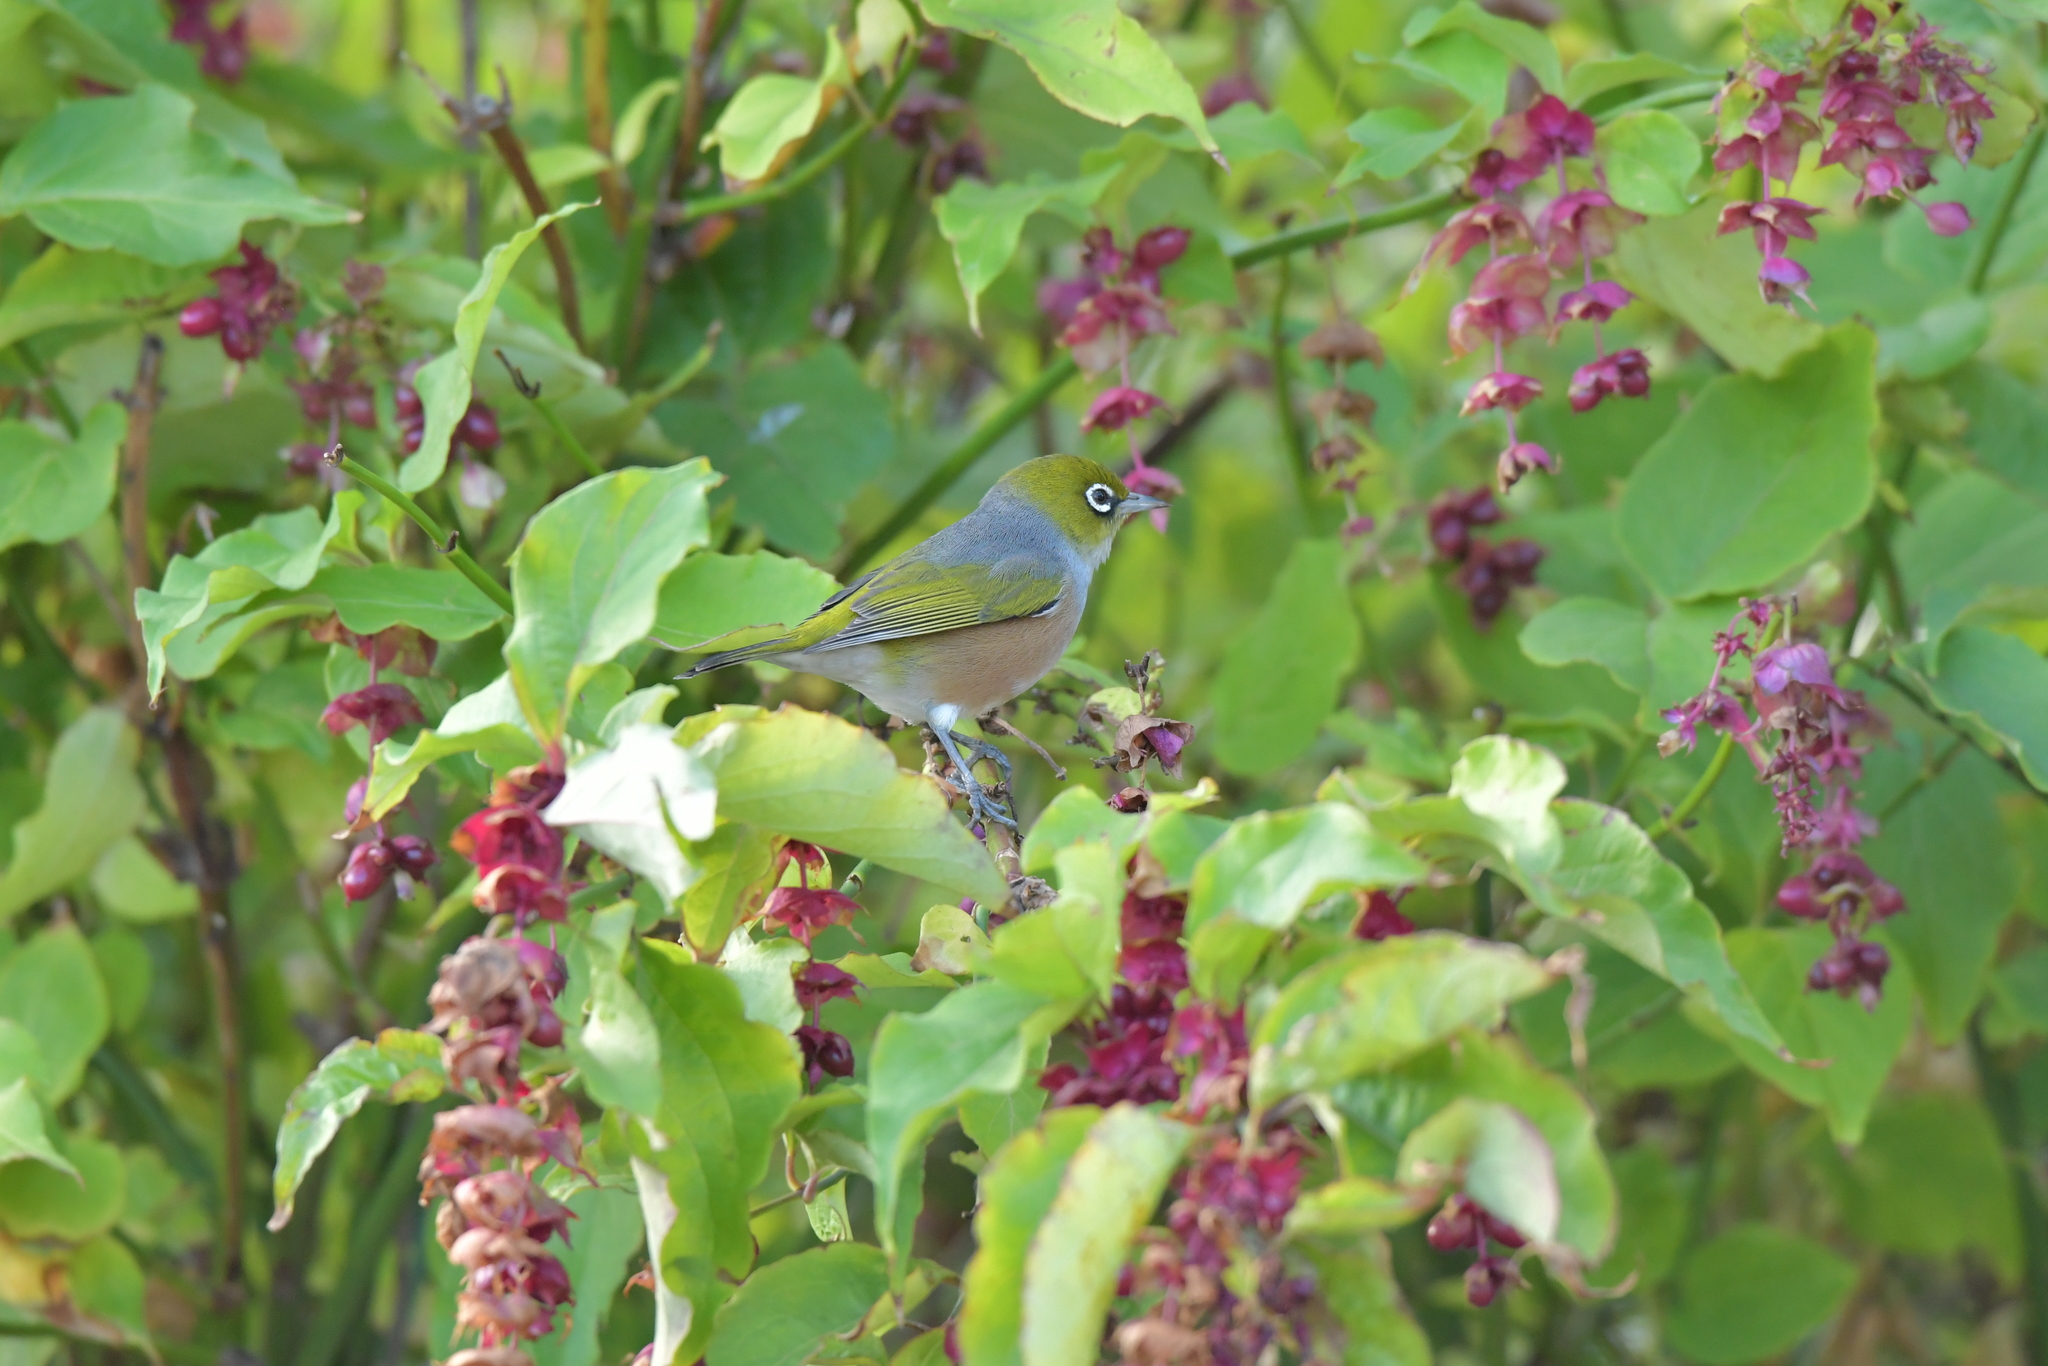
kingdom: Animalia
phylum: Chordata
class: Aves
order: Passeriformes
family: Zosteropidae
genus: Zosterops
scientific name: Zosterops lateralis
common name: Silvereye
